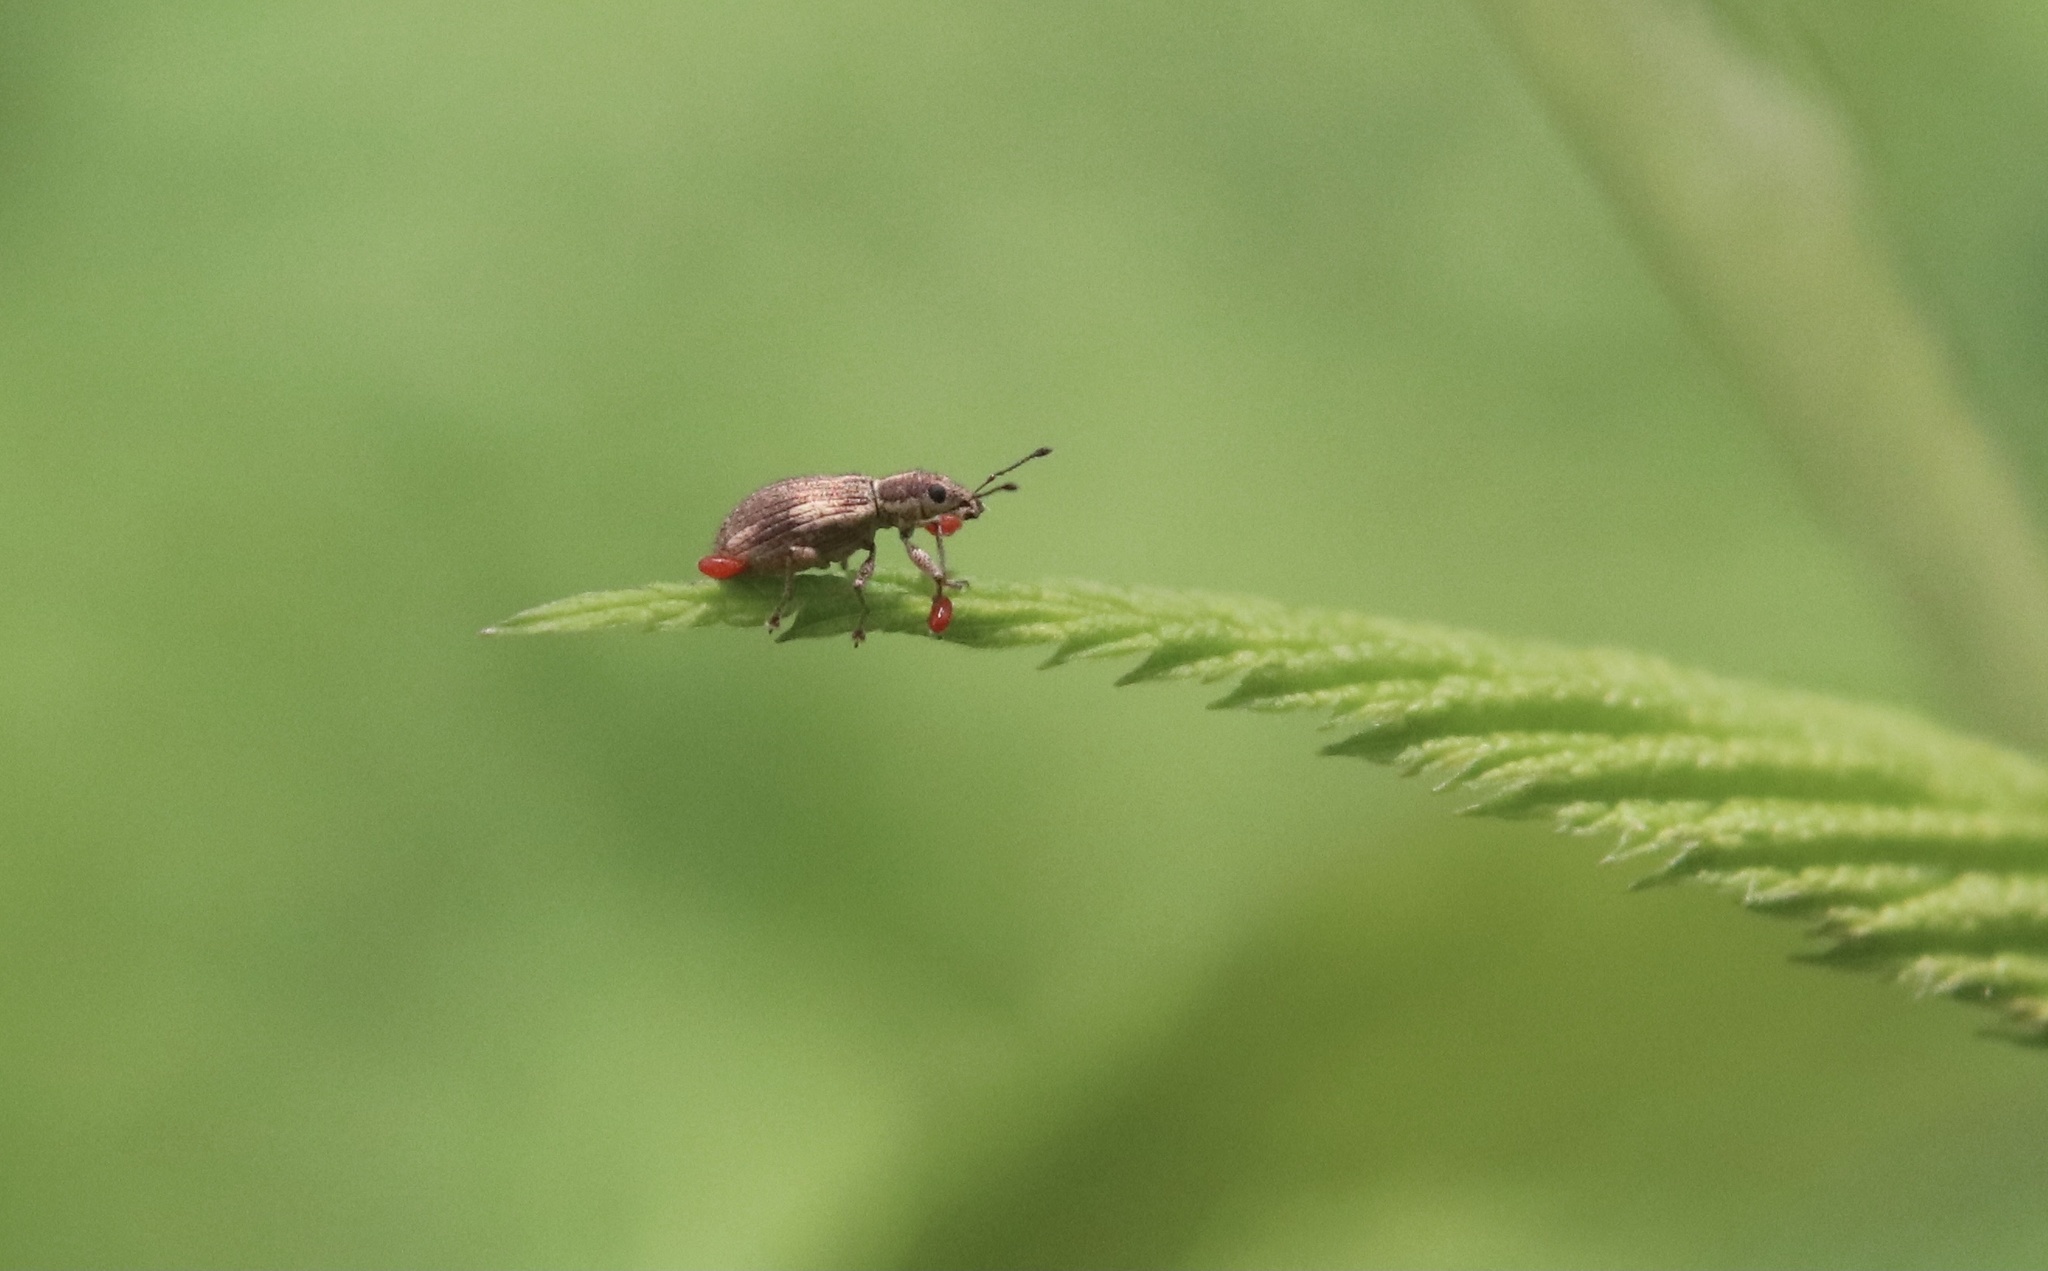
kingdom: Animalia
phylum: Arthropoda
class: Insecta
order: Coleoptera
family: Curculionidae
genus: Polydrusus
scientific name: Polydrusus nothofagi
